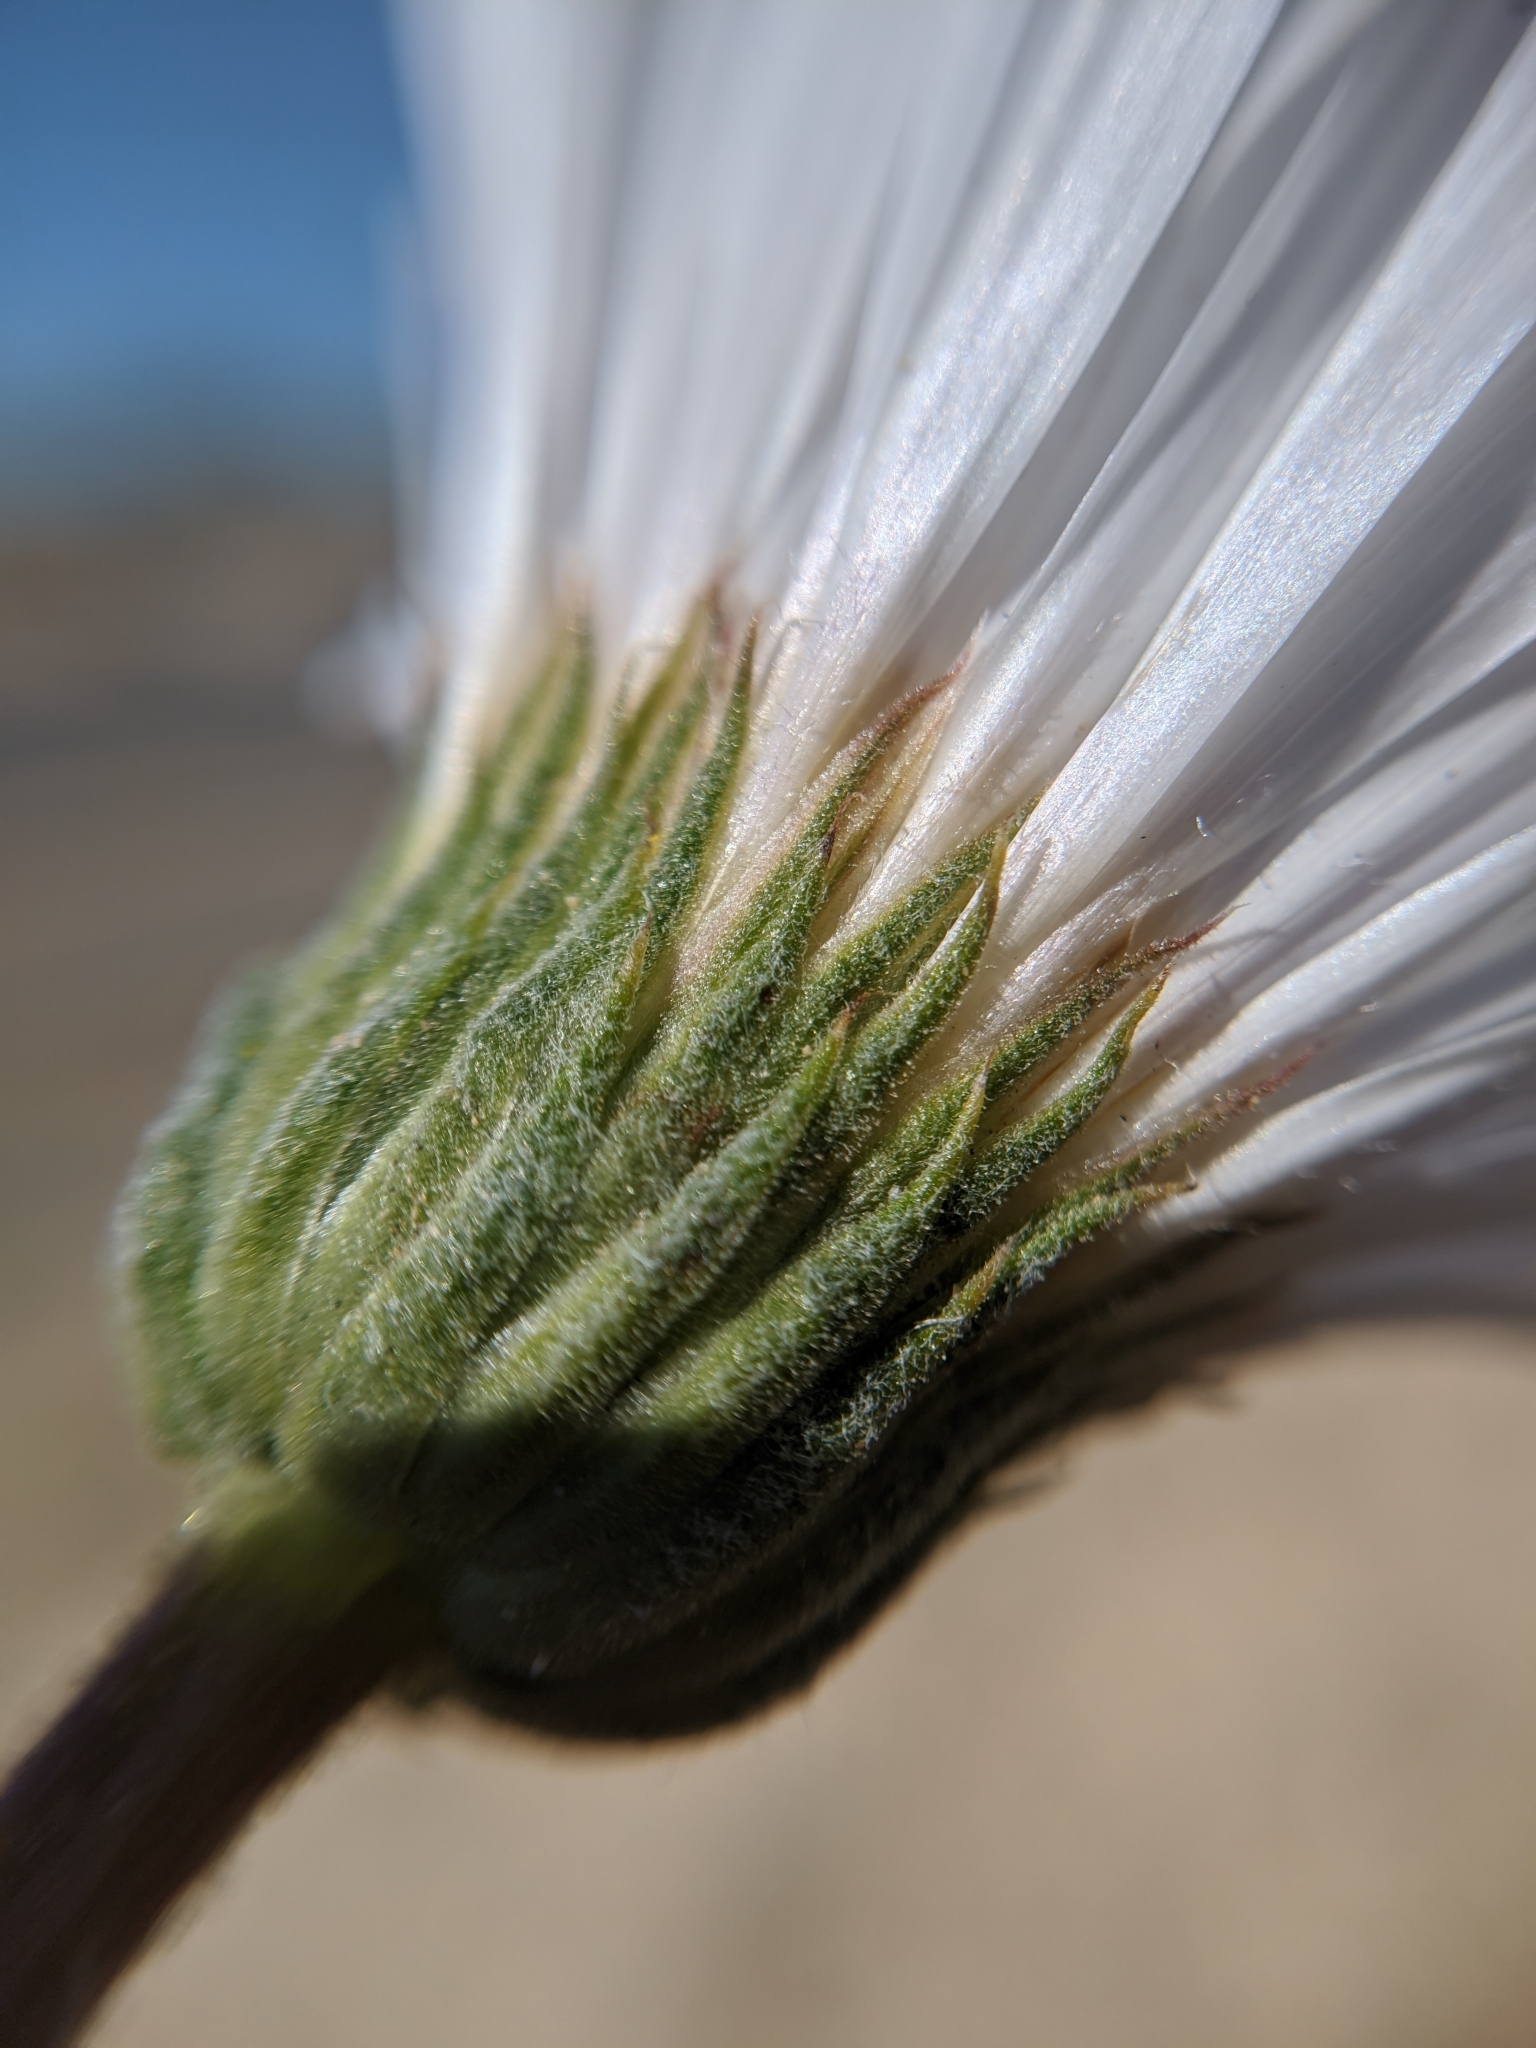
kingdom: Plantae
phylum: Tracheophyta
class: Magnoliopsida
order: Asterales
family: Asteraceae
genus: Xylorhiza
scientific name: Xylorhiza tortifolia
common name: Hurt-leaf woody-aster
